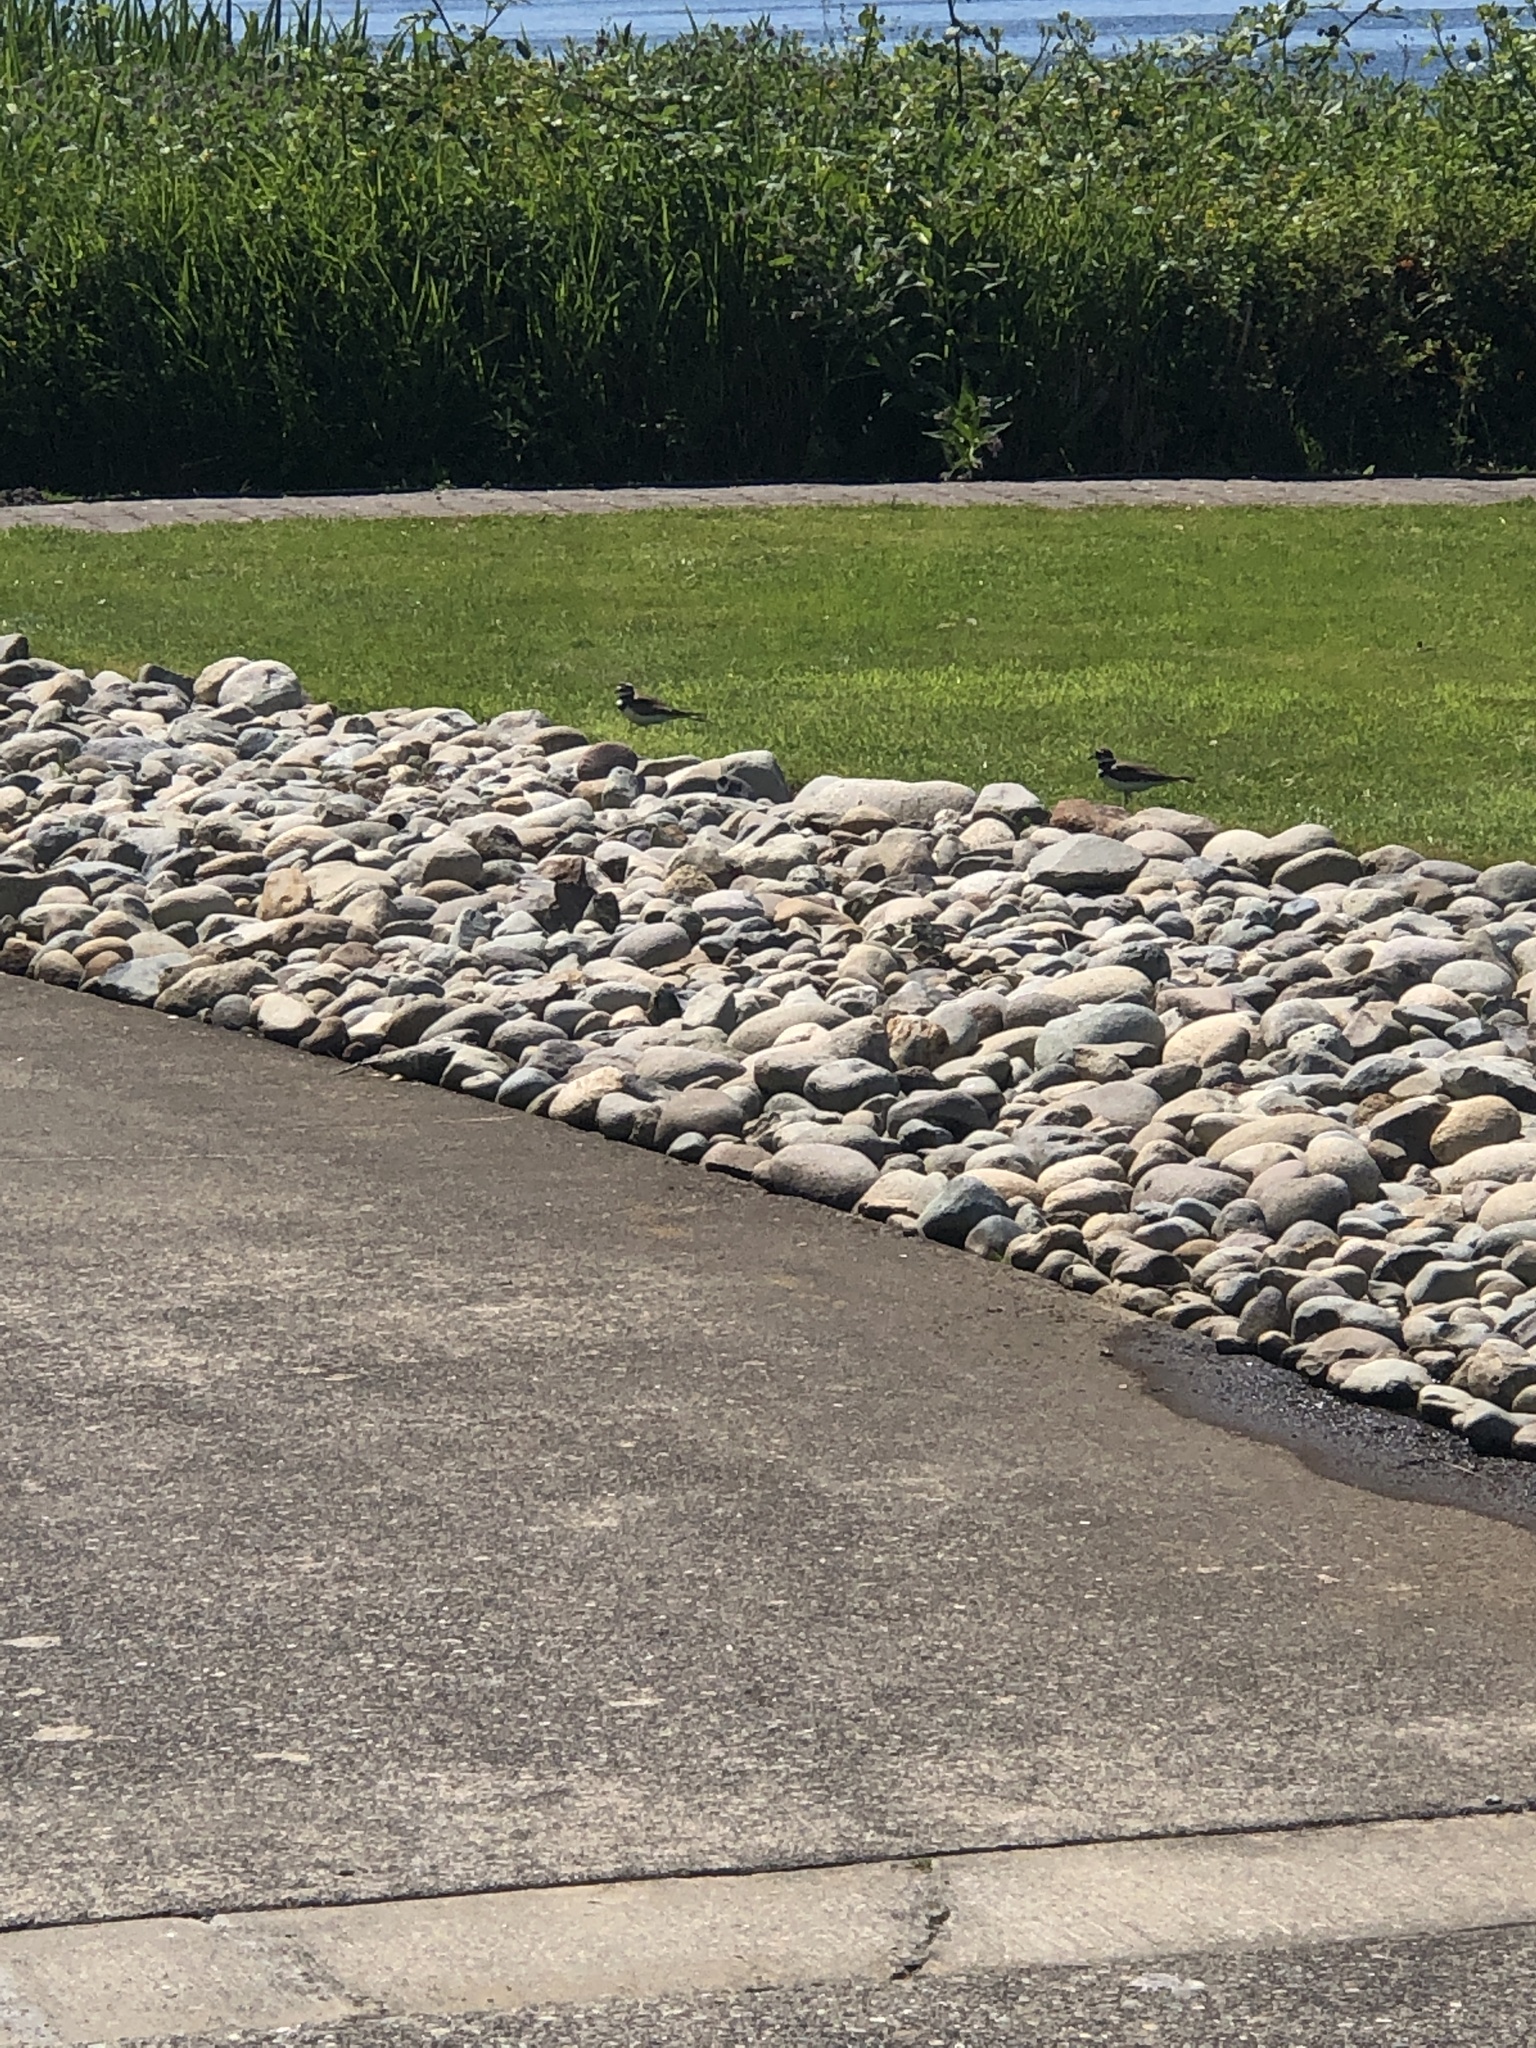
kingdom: Animalia
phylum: Chordata
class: Aves
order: Charadriiformes
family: Charadriidae
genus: Charadrius
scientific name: Charadrius vociferus
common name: Killdeer
